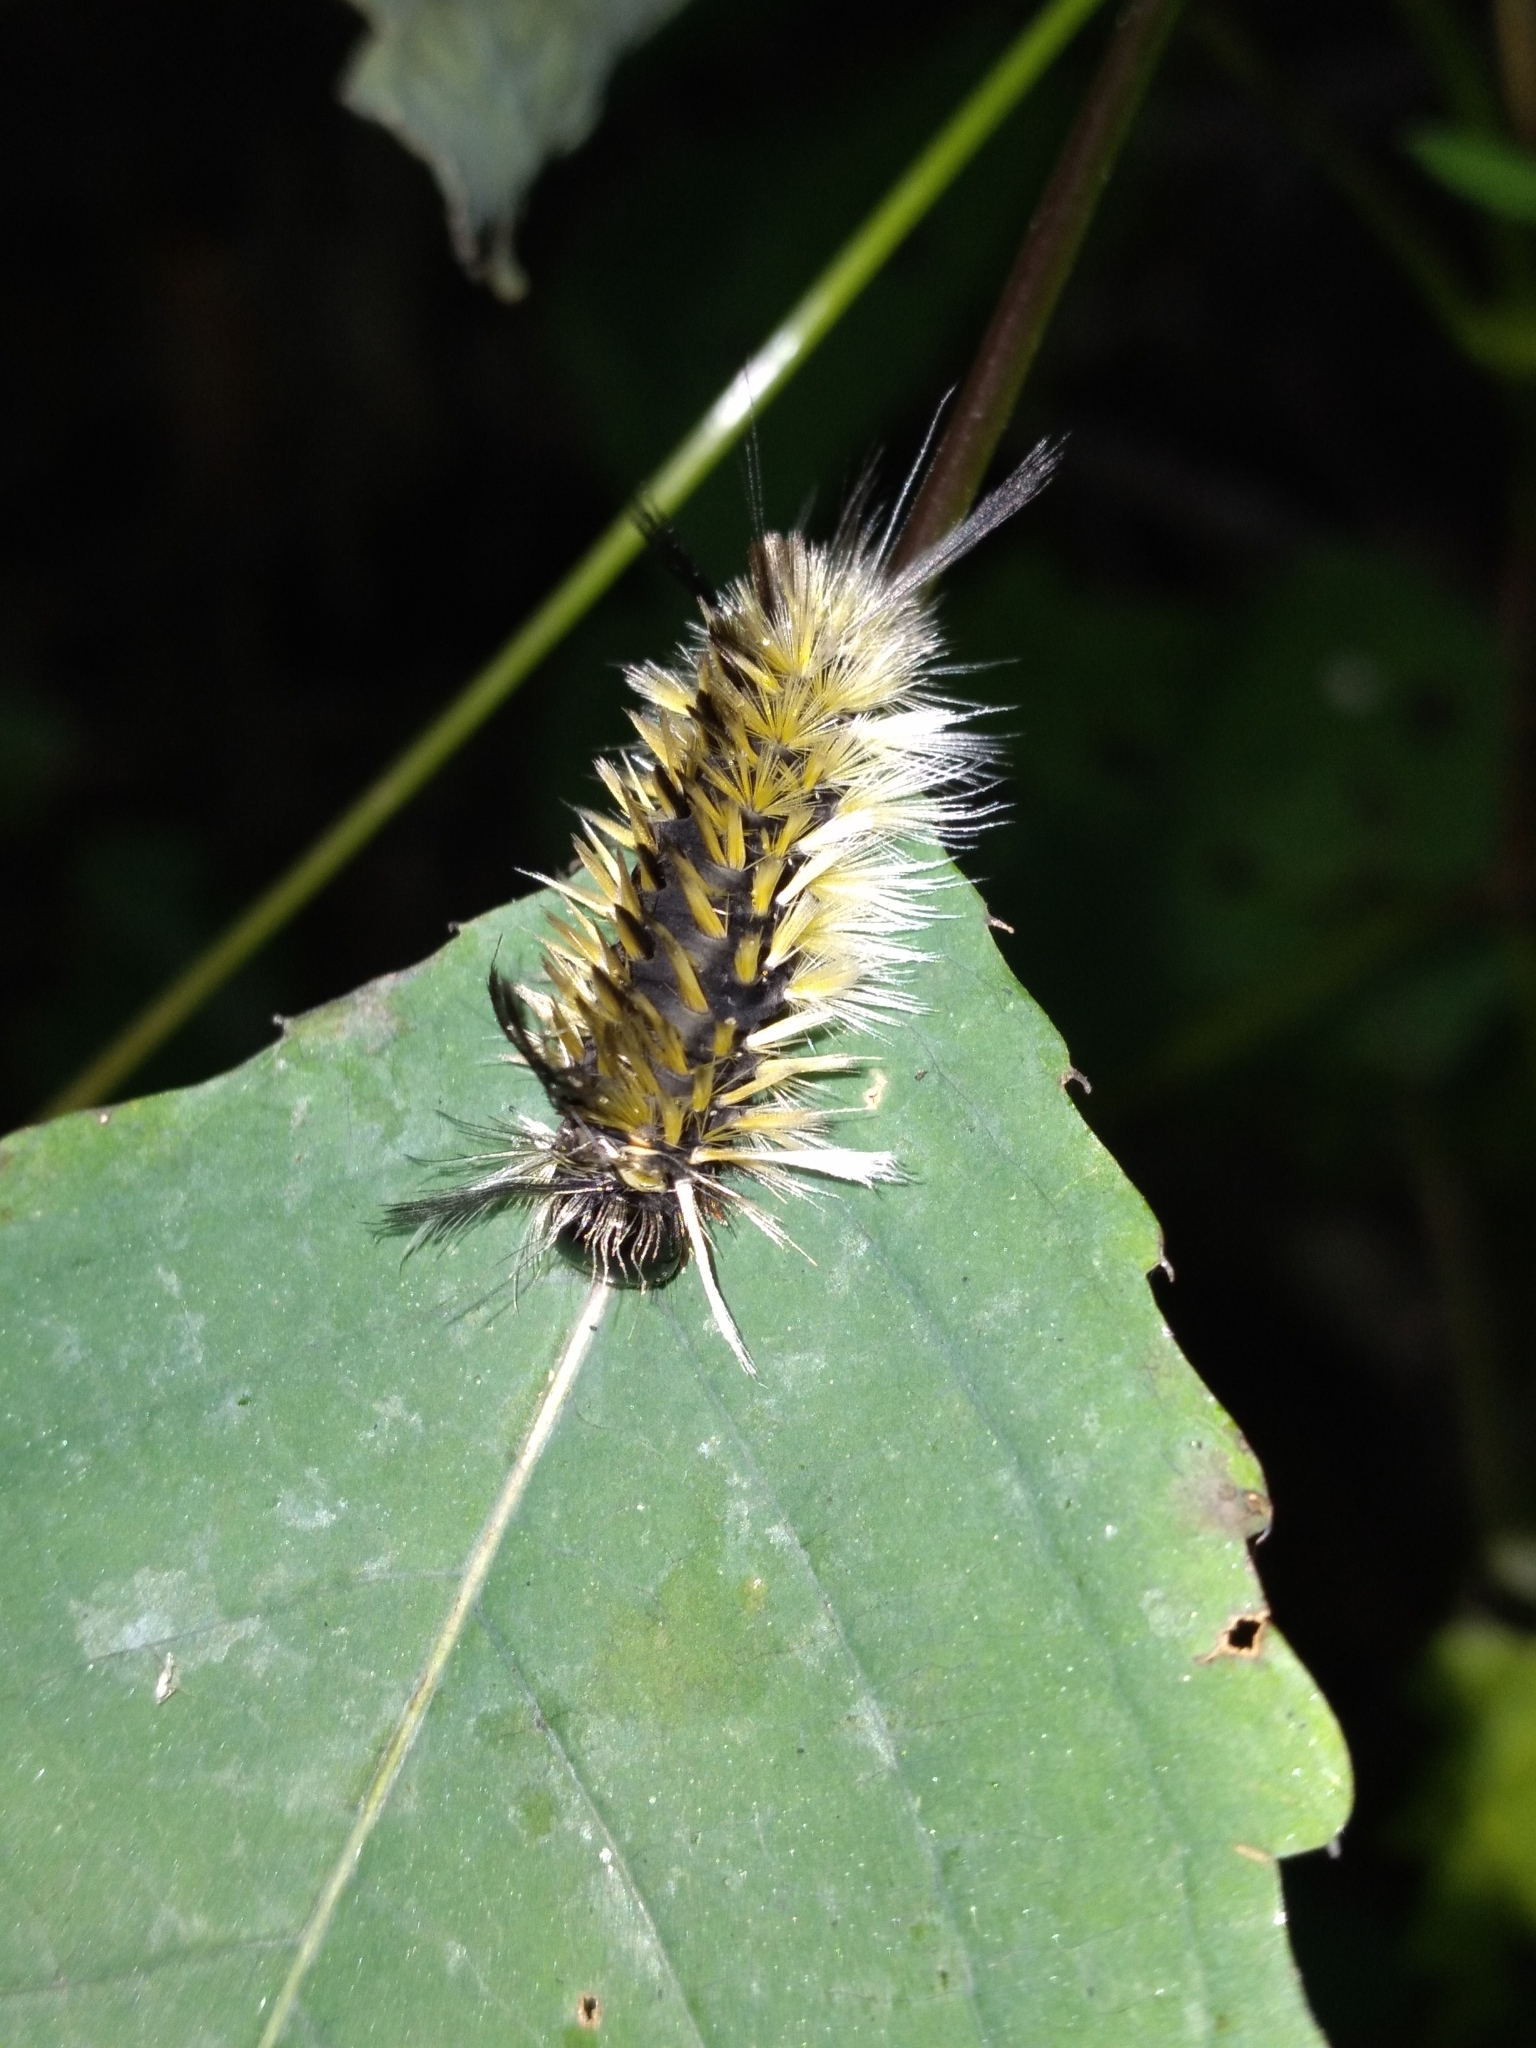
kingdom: Animalia
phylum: Arthropoda
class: Insecta
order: Lepidoptera
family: Erebidae
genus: Halysidota
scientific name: Halysidota tessellaris
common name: Banded tussock moth
